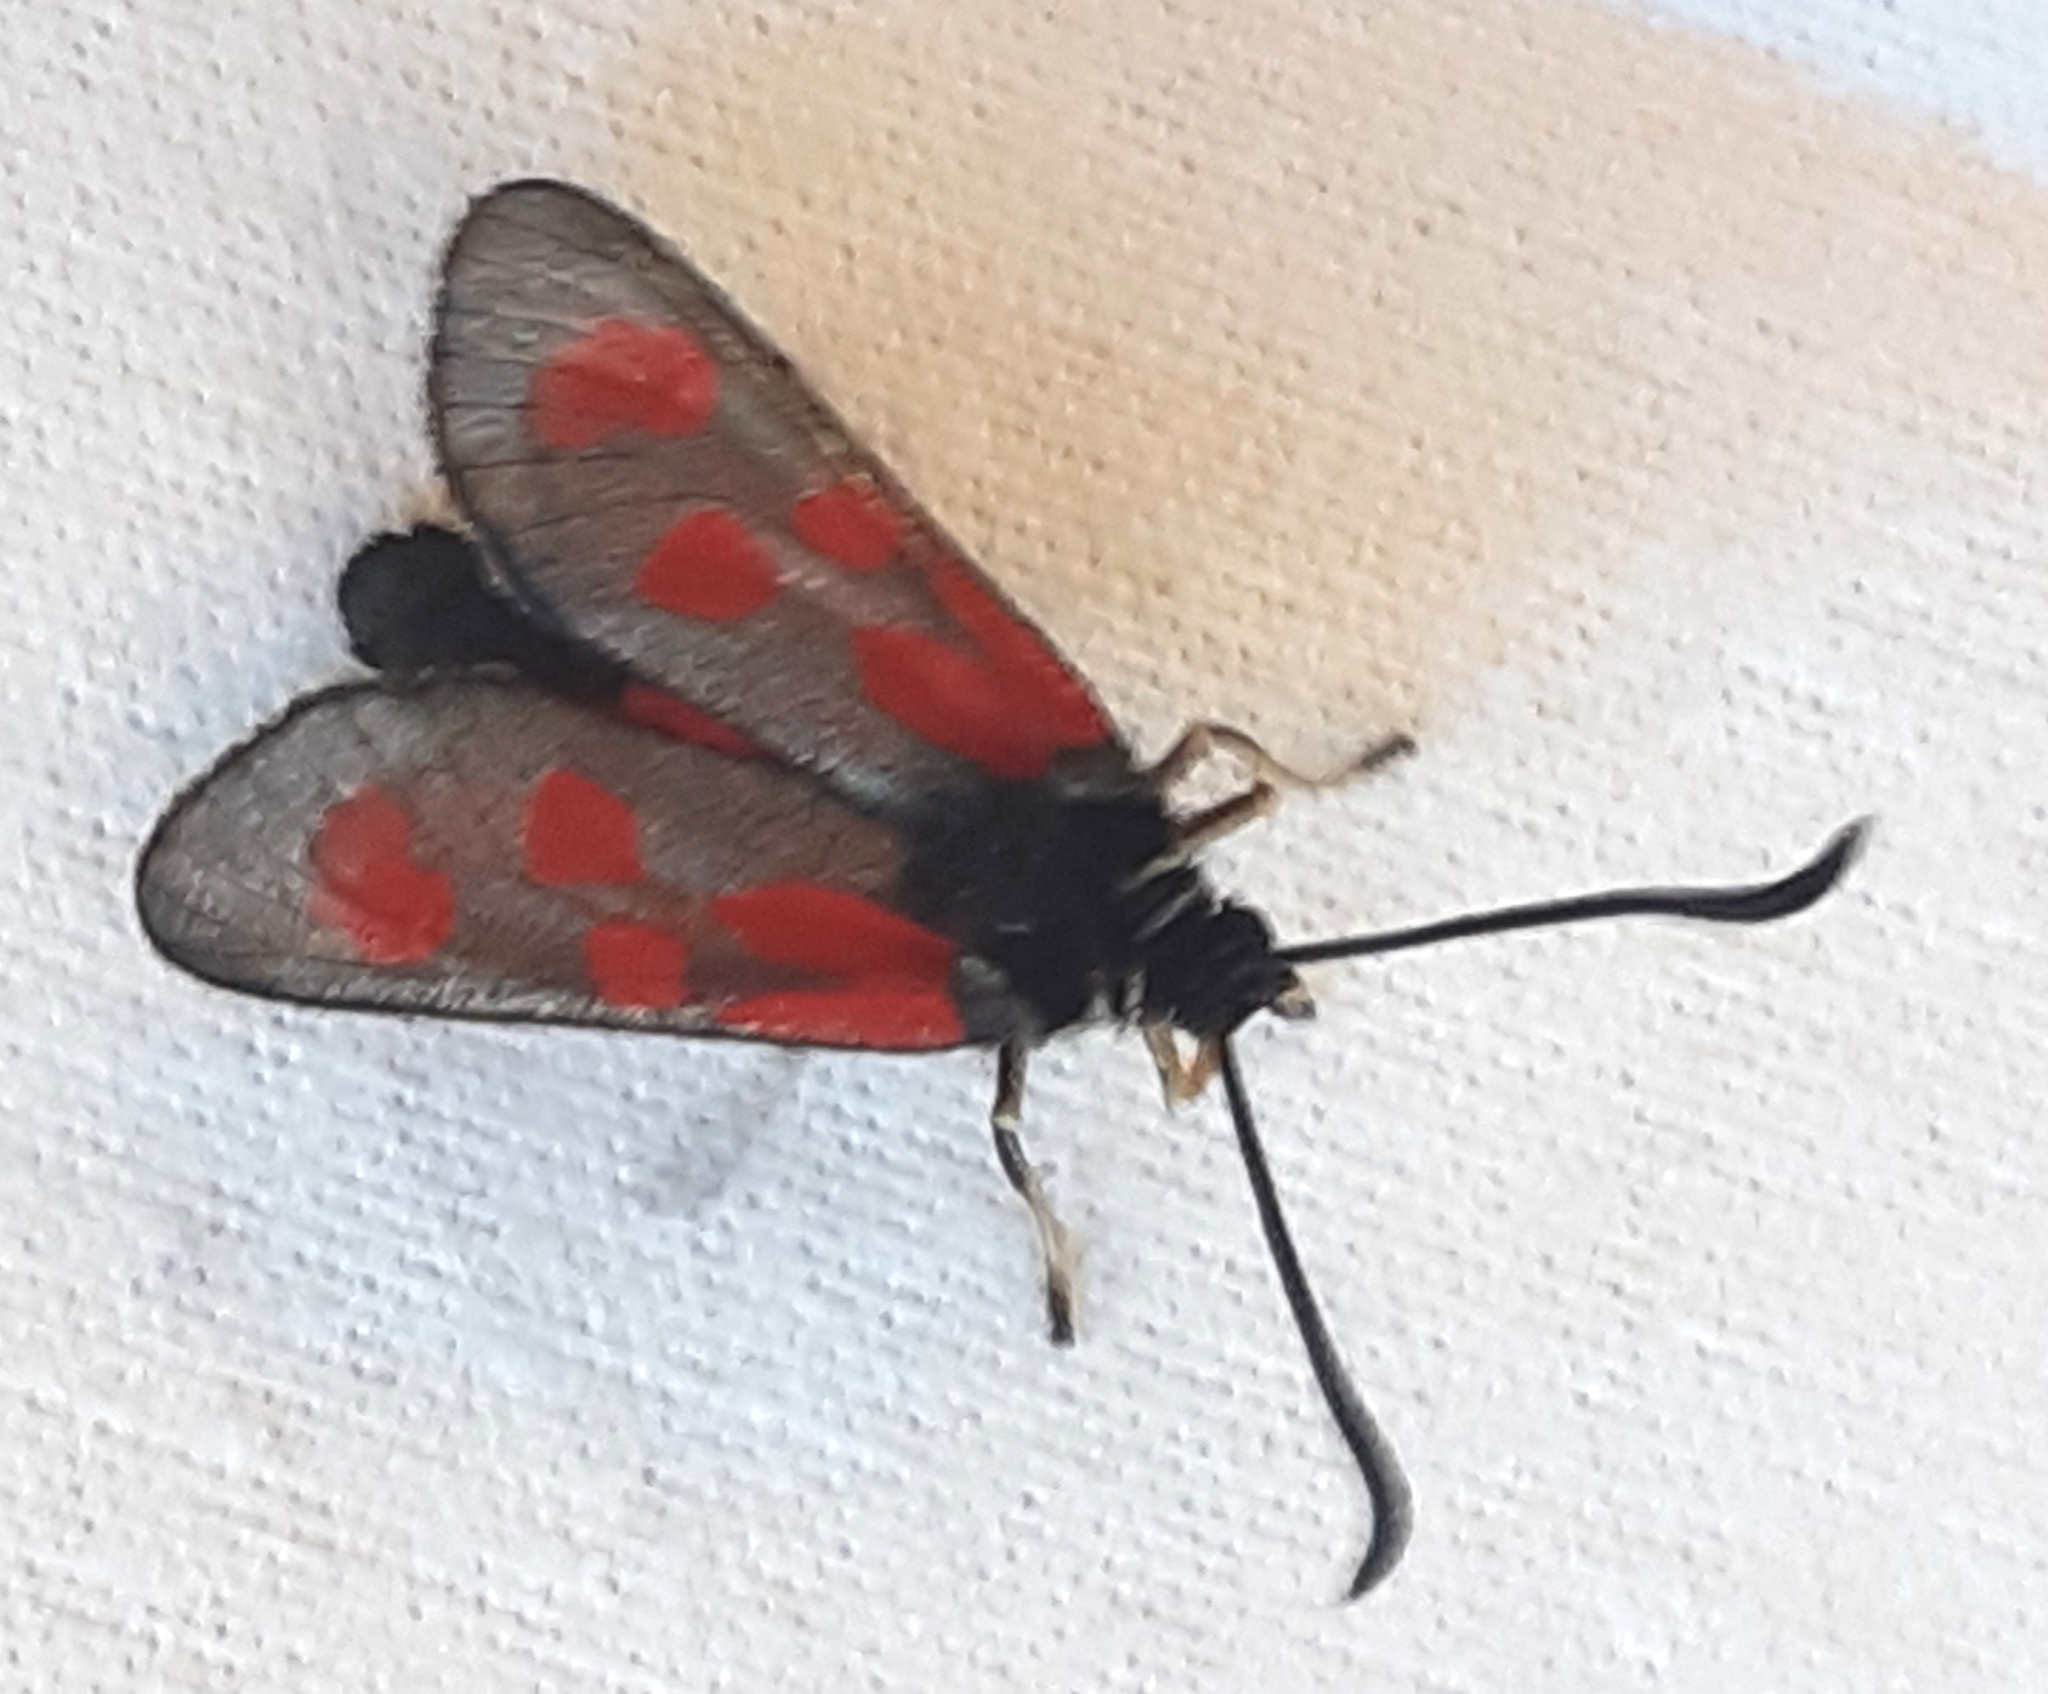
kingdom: Animalia
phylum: Arthropoda
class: Insecta
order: Lepidoptera
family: Zygaenidae
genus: Zygaena
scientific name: Zygaena loti
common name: Slender scotch burnet
